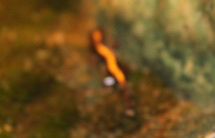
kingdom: Animalia
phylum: Chordata
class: Amphibia
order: Caudata
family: Plethodontidae
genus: Plethodon
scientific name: Plethodon dixi
